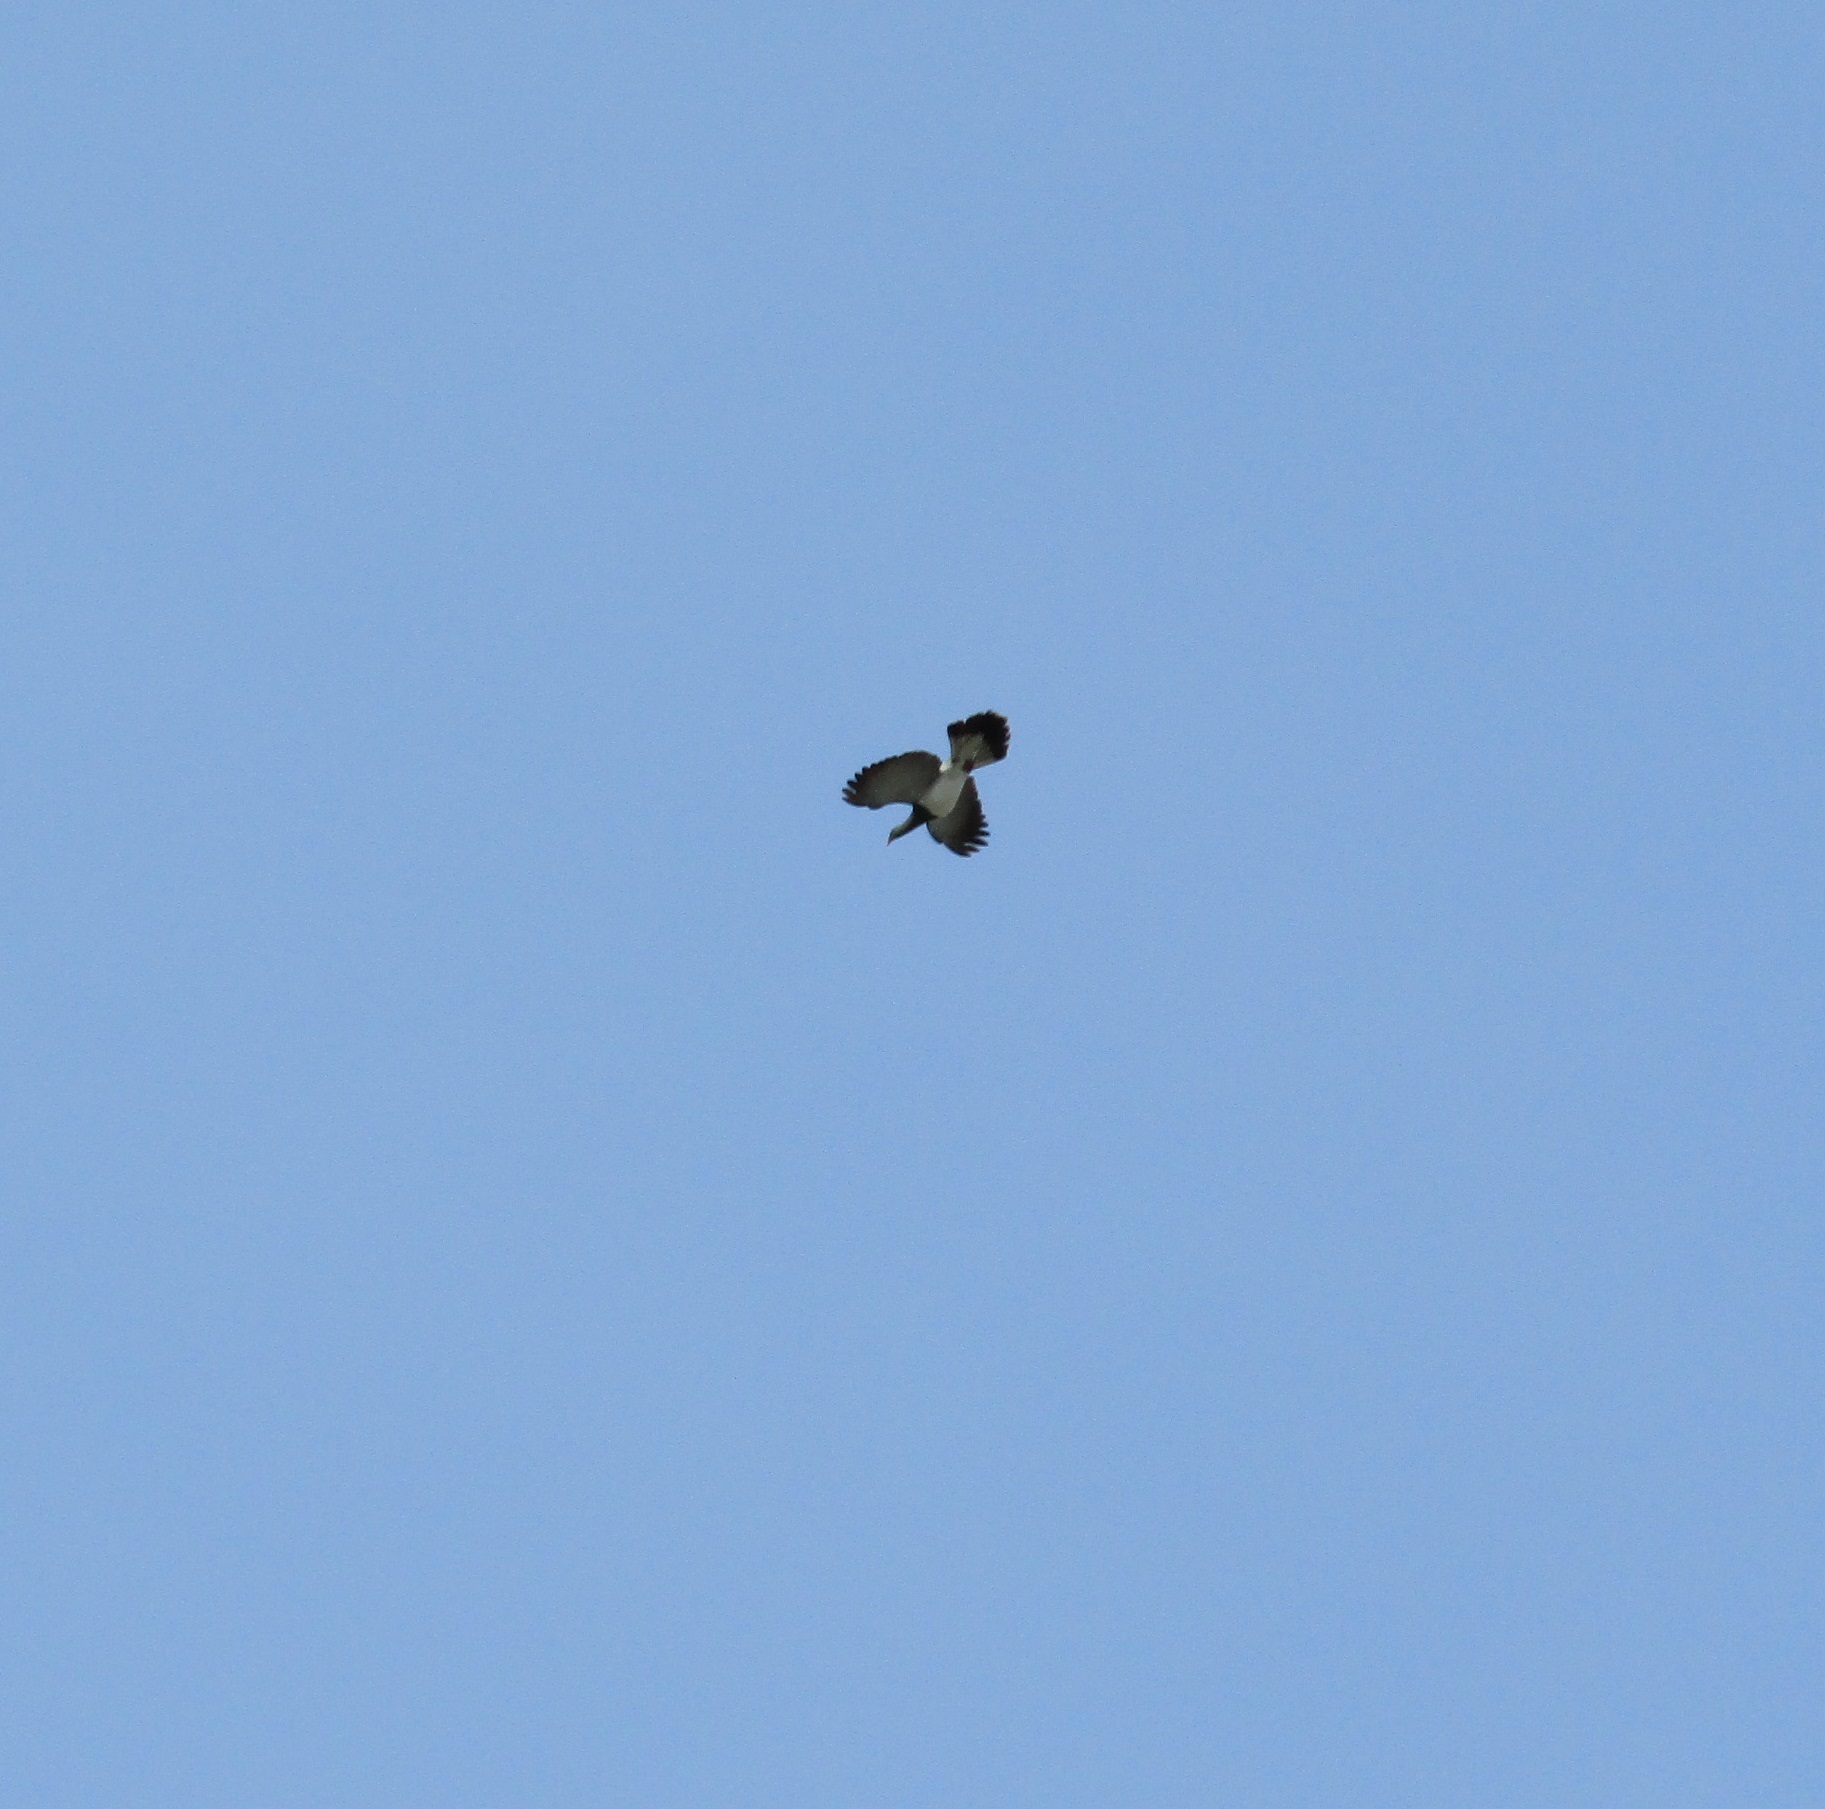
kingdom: Animalia
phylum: Chordata
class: Aves
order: Columbiformes
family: Columbidae
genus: Hemiphaga
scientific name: Hemiphaga novaeseelandiae
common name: New zealand pigeon
